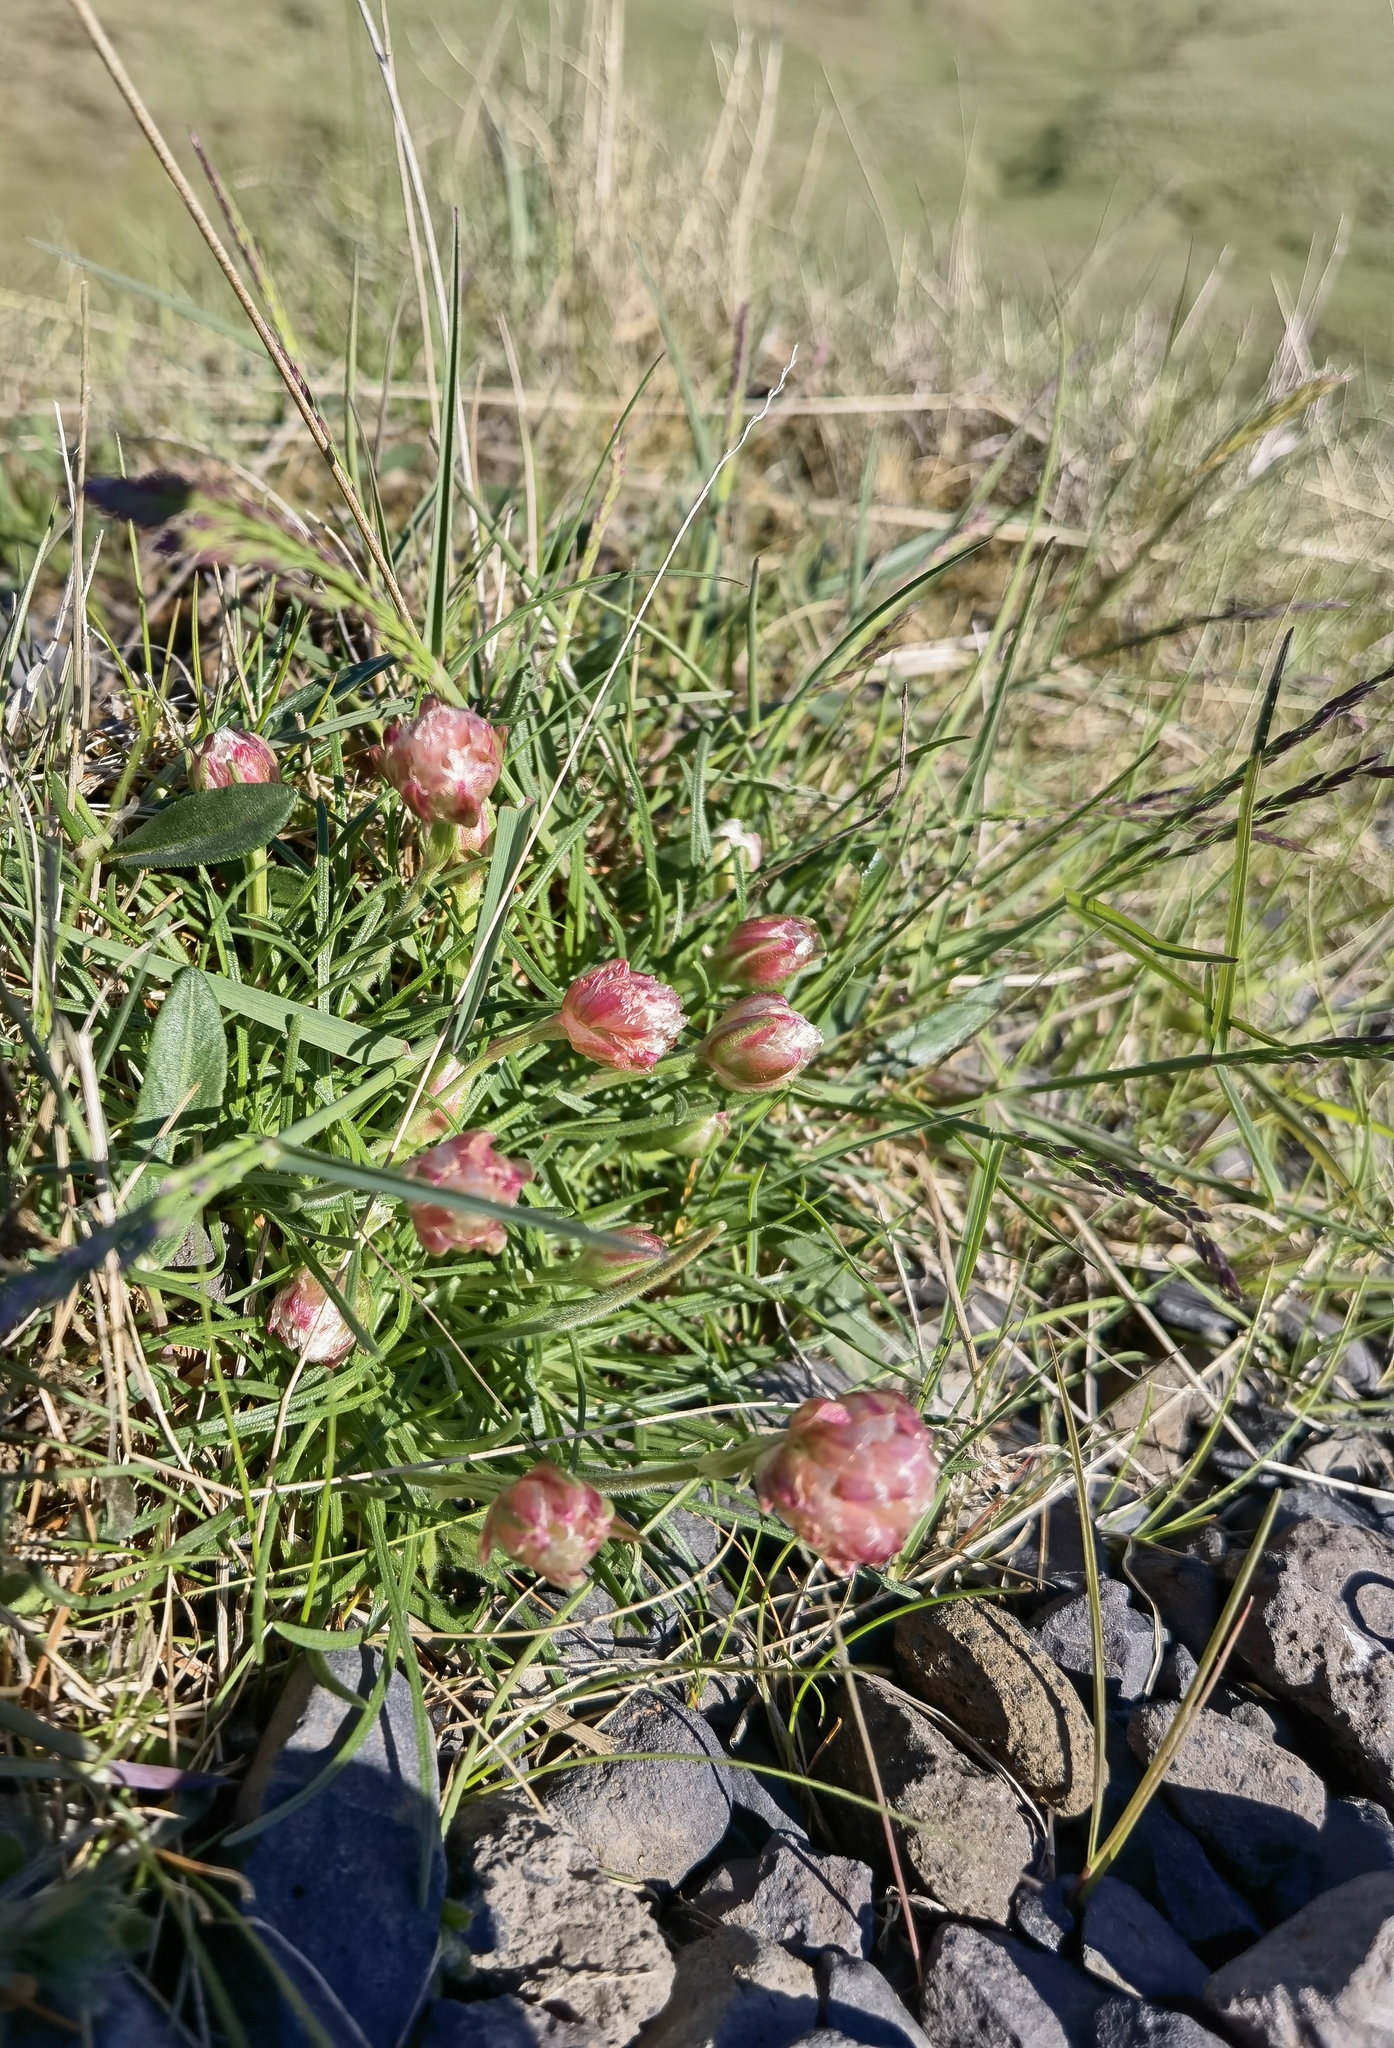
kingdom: Plantae
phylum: Tracheophyta
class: Magnoliopsida
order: Caryophyllales
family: Plumbaginaceae
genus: Armeria
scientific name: Armeria maritima
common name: Thrift
